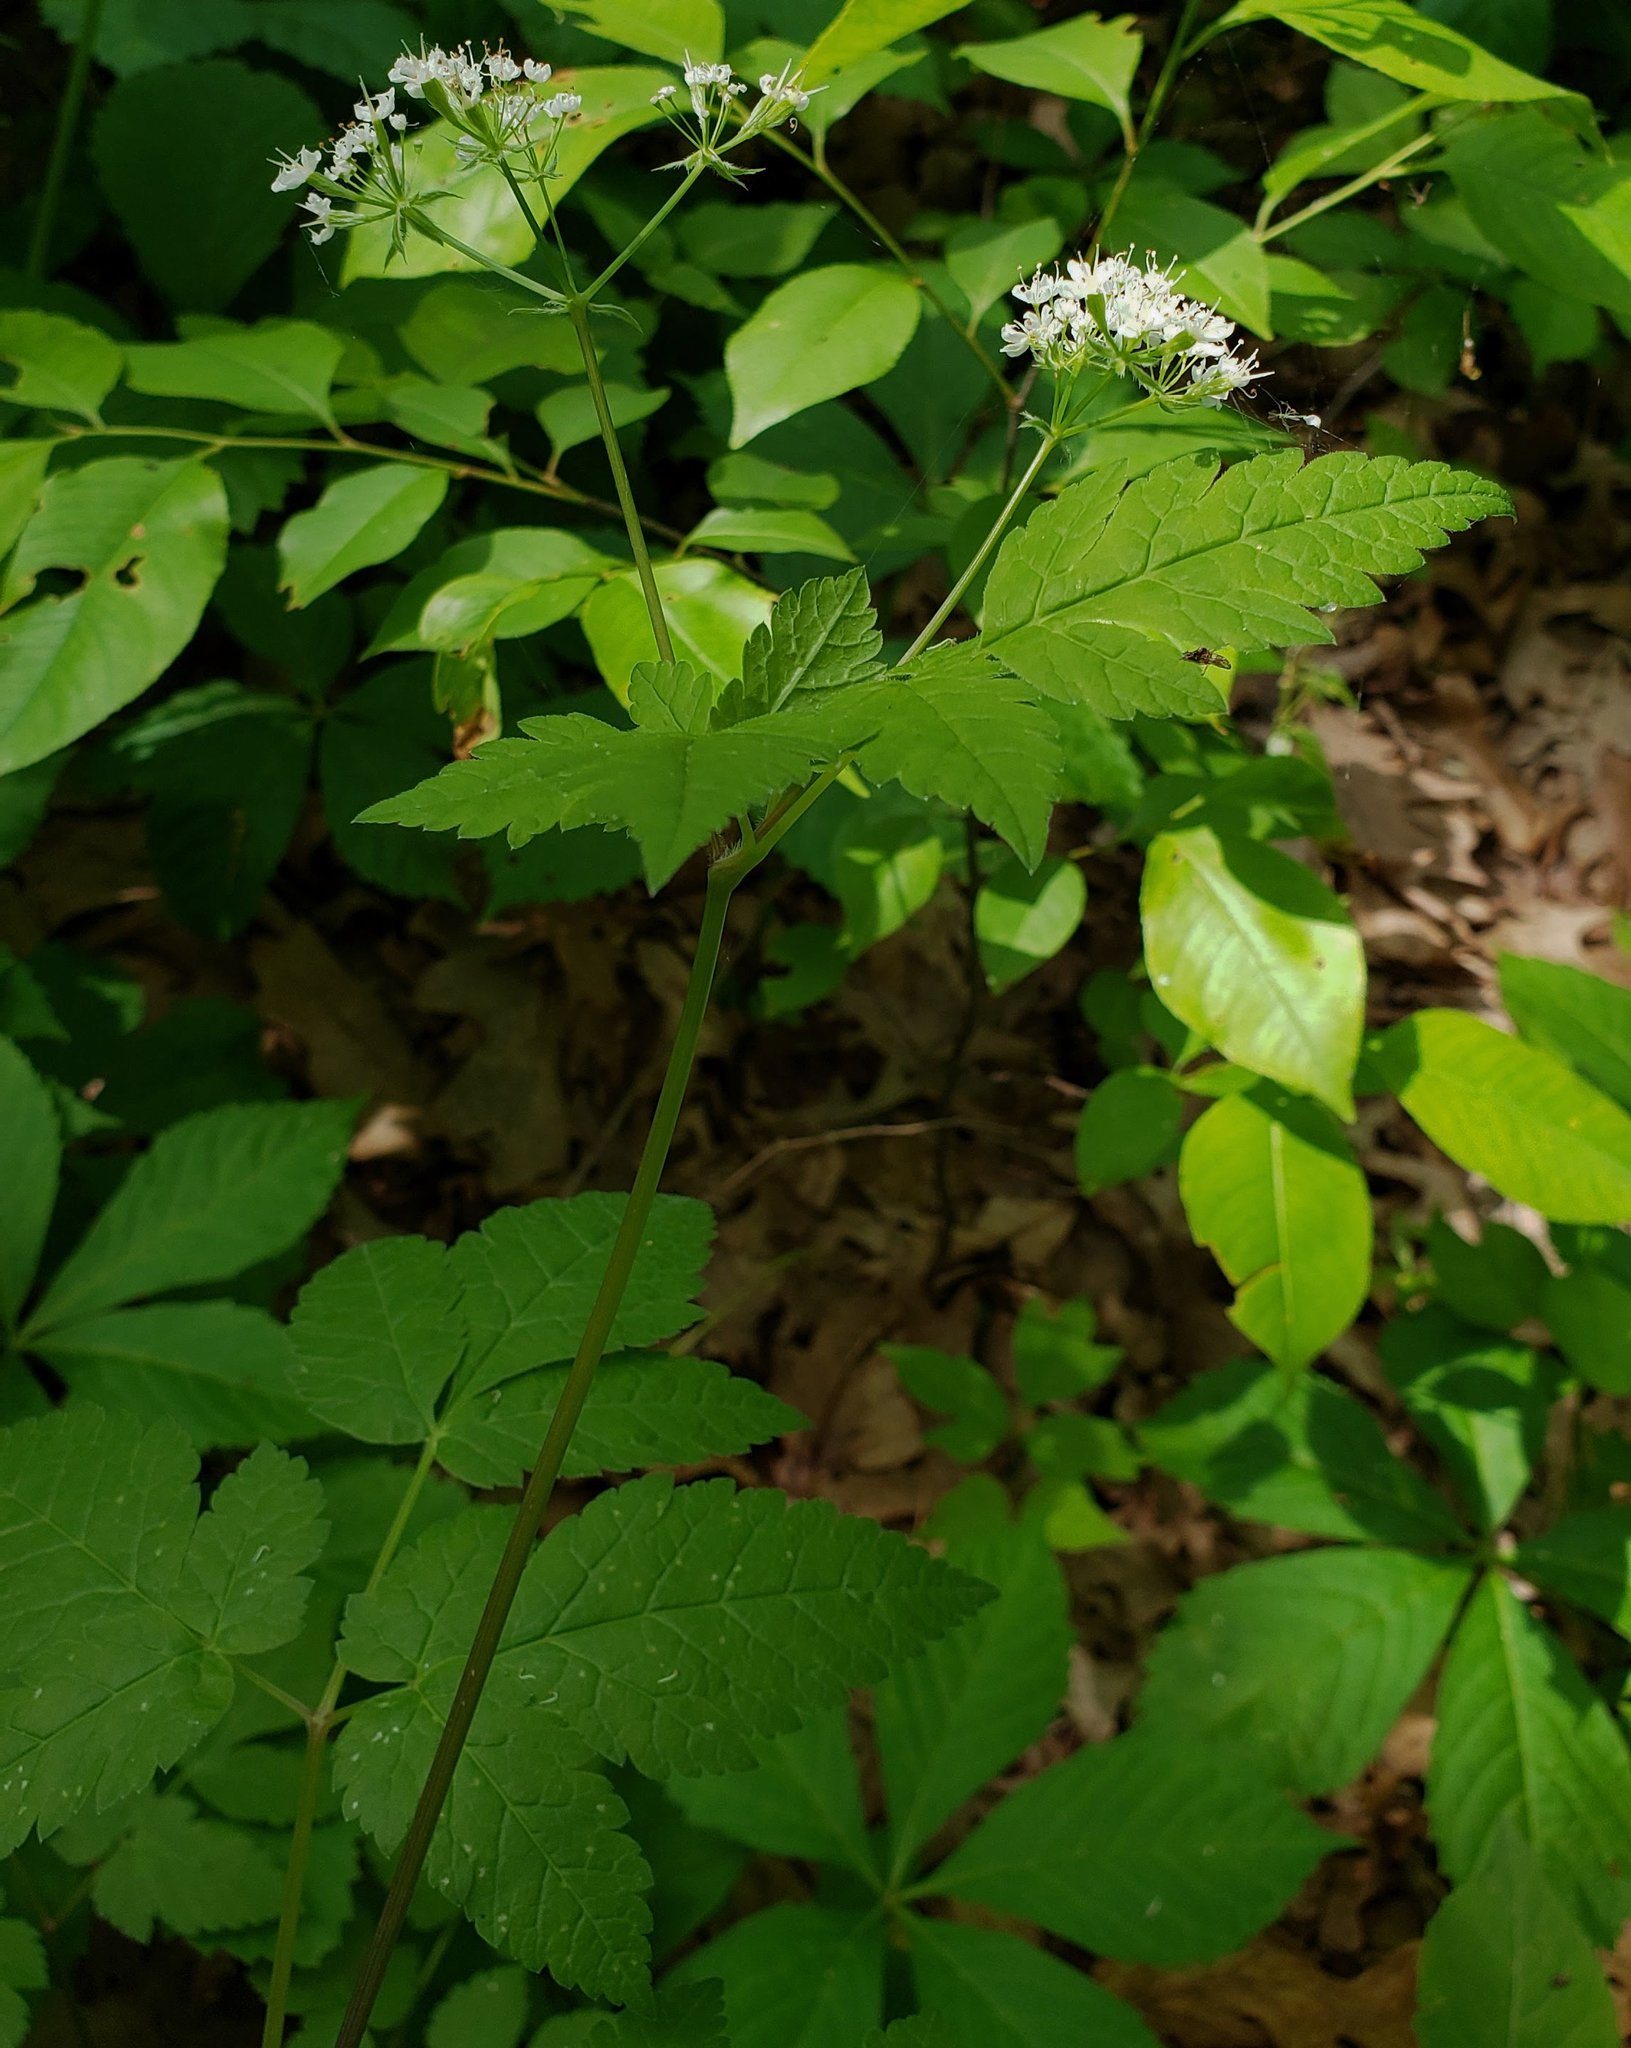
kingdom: Plantae
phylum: Tracheophyta
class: Magnoliopsida
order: Apiales
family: Apiaceae
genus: Osmorhiza
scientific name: Osmorhiza longistylis
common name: Smooth sweet cicely
